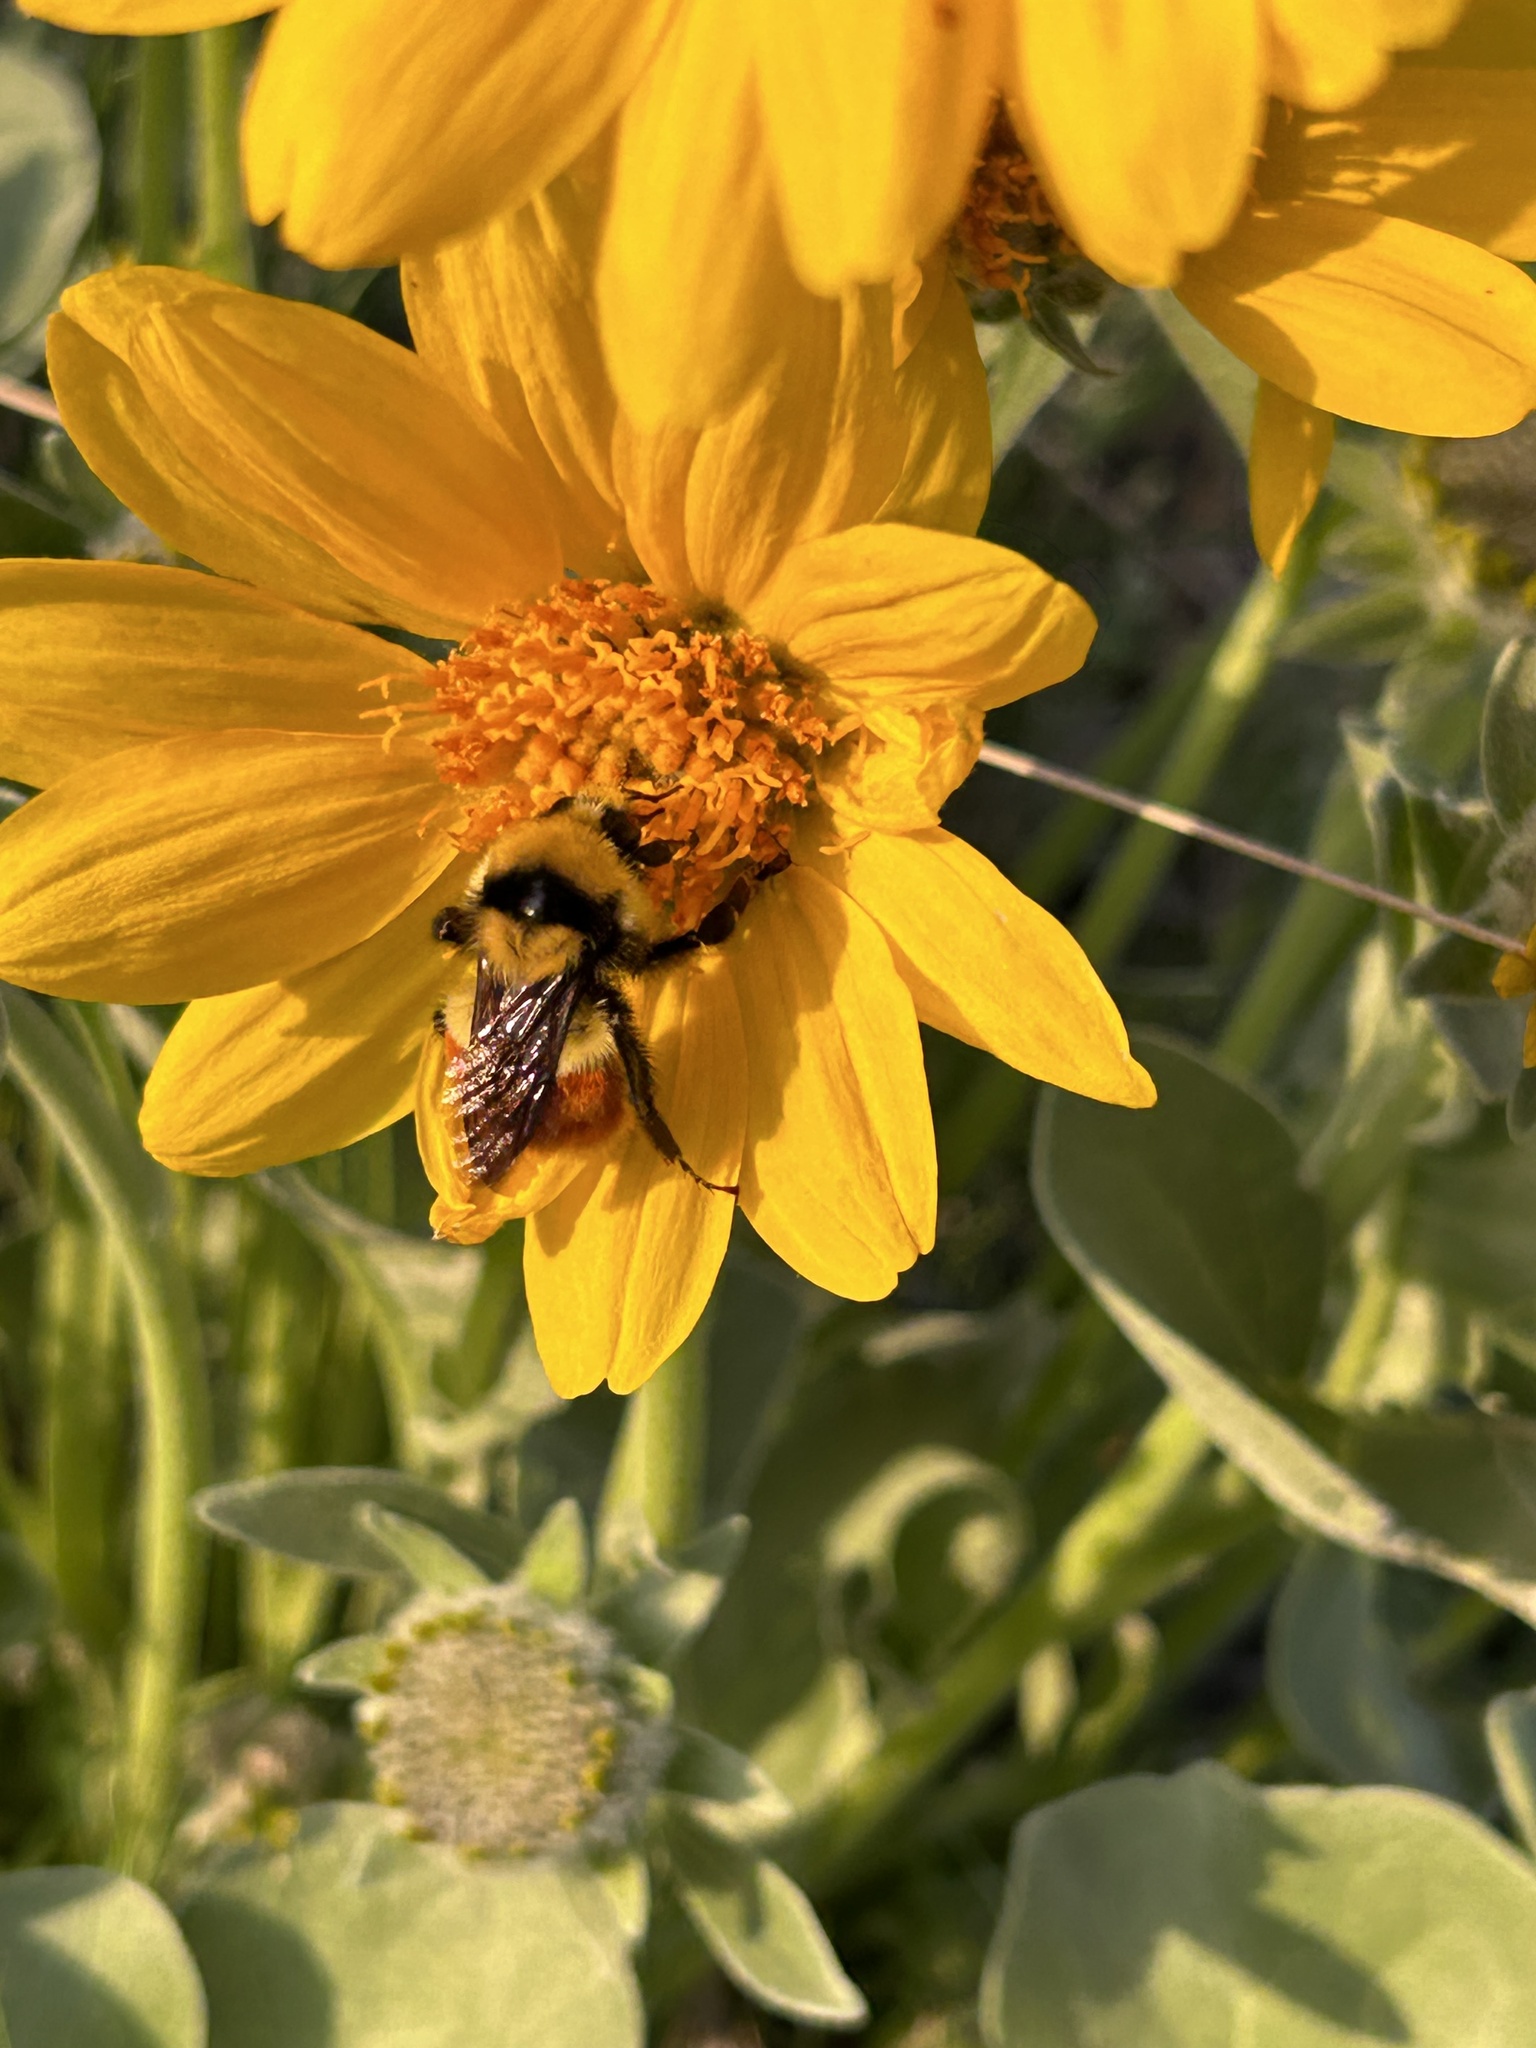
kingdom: Animalia
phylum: Arthropoda
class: Insecta
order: Hymenoptera
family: Apidae
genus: Bombus
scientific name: Bombus huntii
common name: Hunt bumble bee
